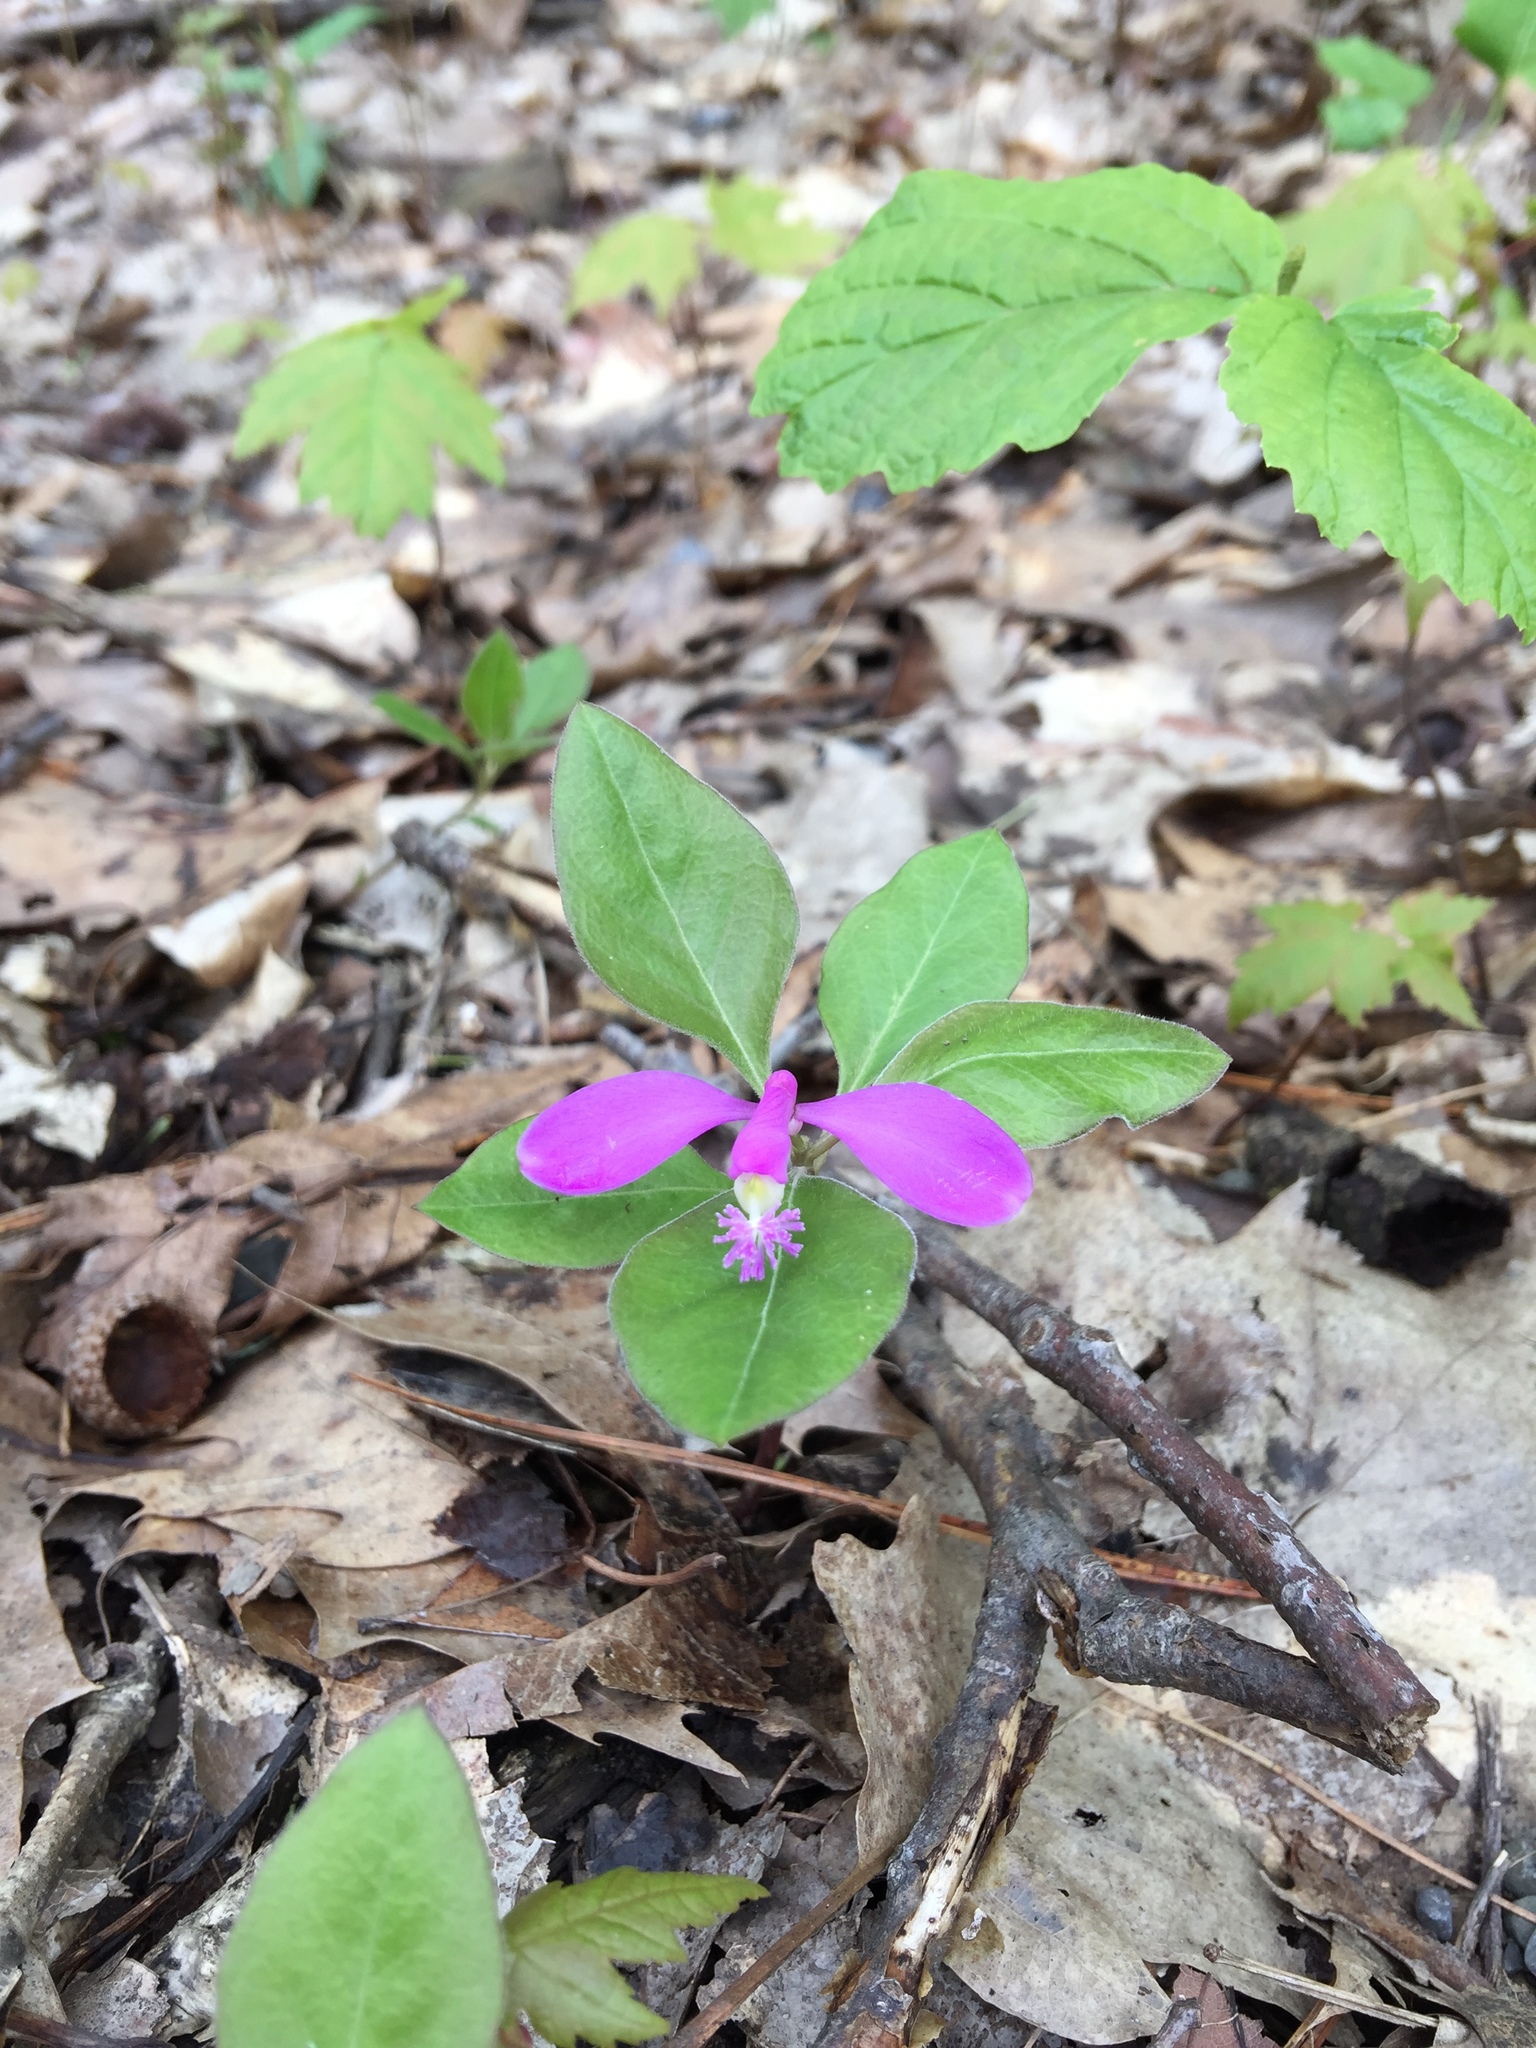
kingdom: Plantae
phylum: Tracheophyta
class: Magnoliopsida
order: Fabales
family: Polygalaceae
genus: Polygaloides
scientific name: Polygaloides paucifolia
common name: Bird-on-the-wing
